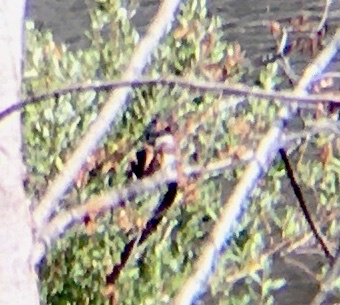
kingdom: Animalia
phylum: Chordata
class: Aves
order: Coraciiformes
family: Alcedinidae
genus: Megaceryle
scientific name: Megaceryle alcyon
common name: Belted kingfisher
